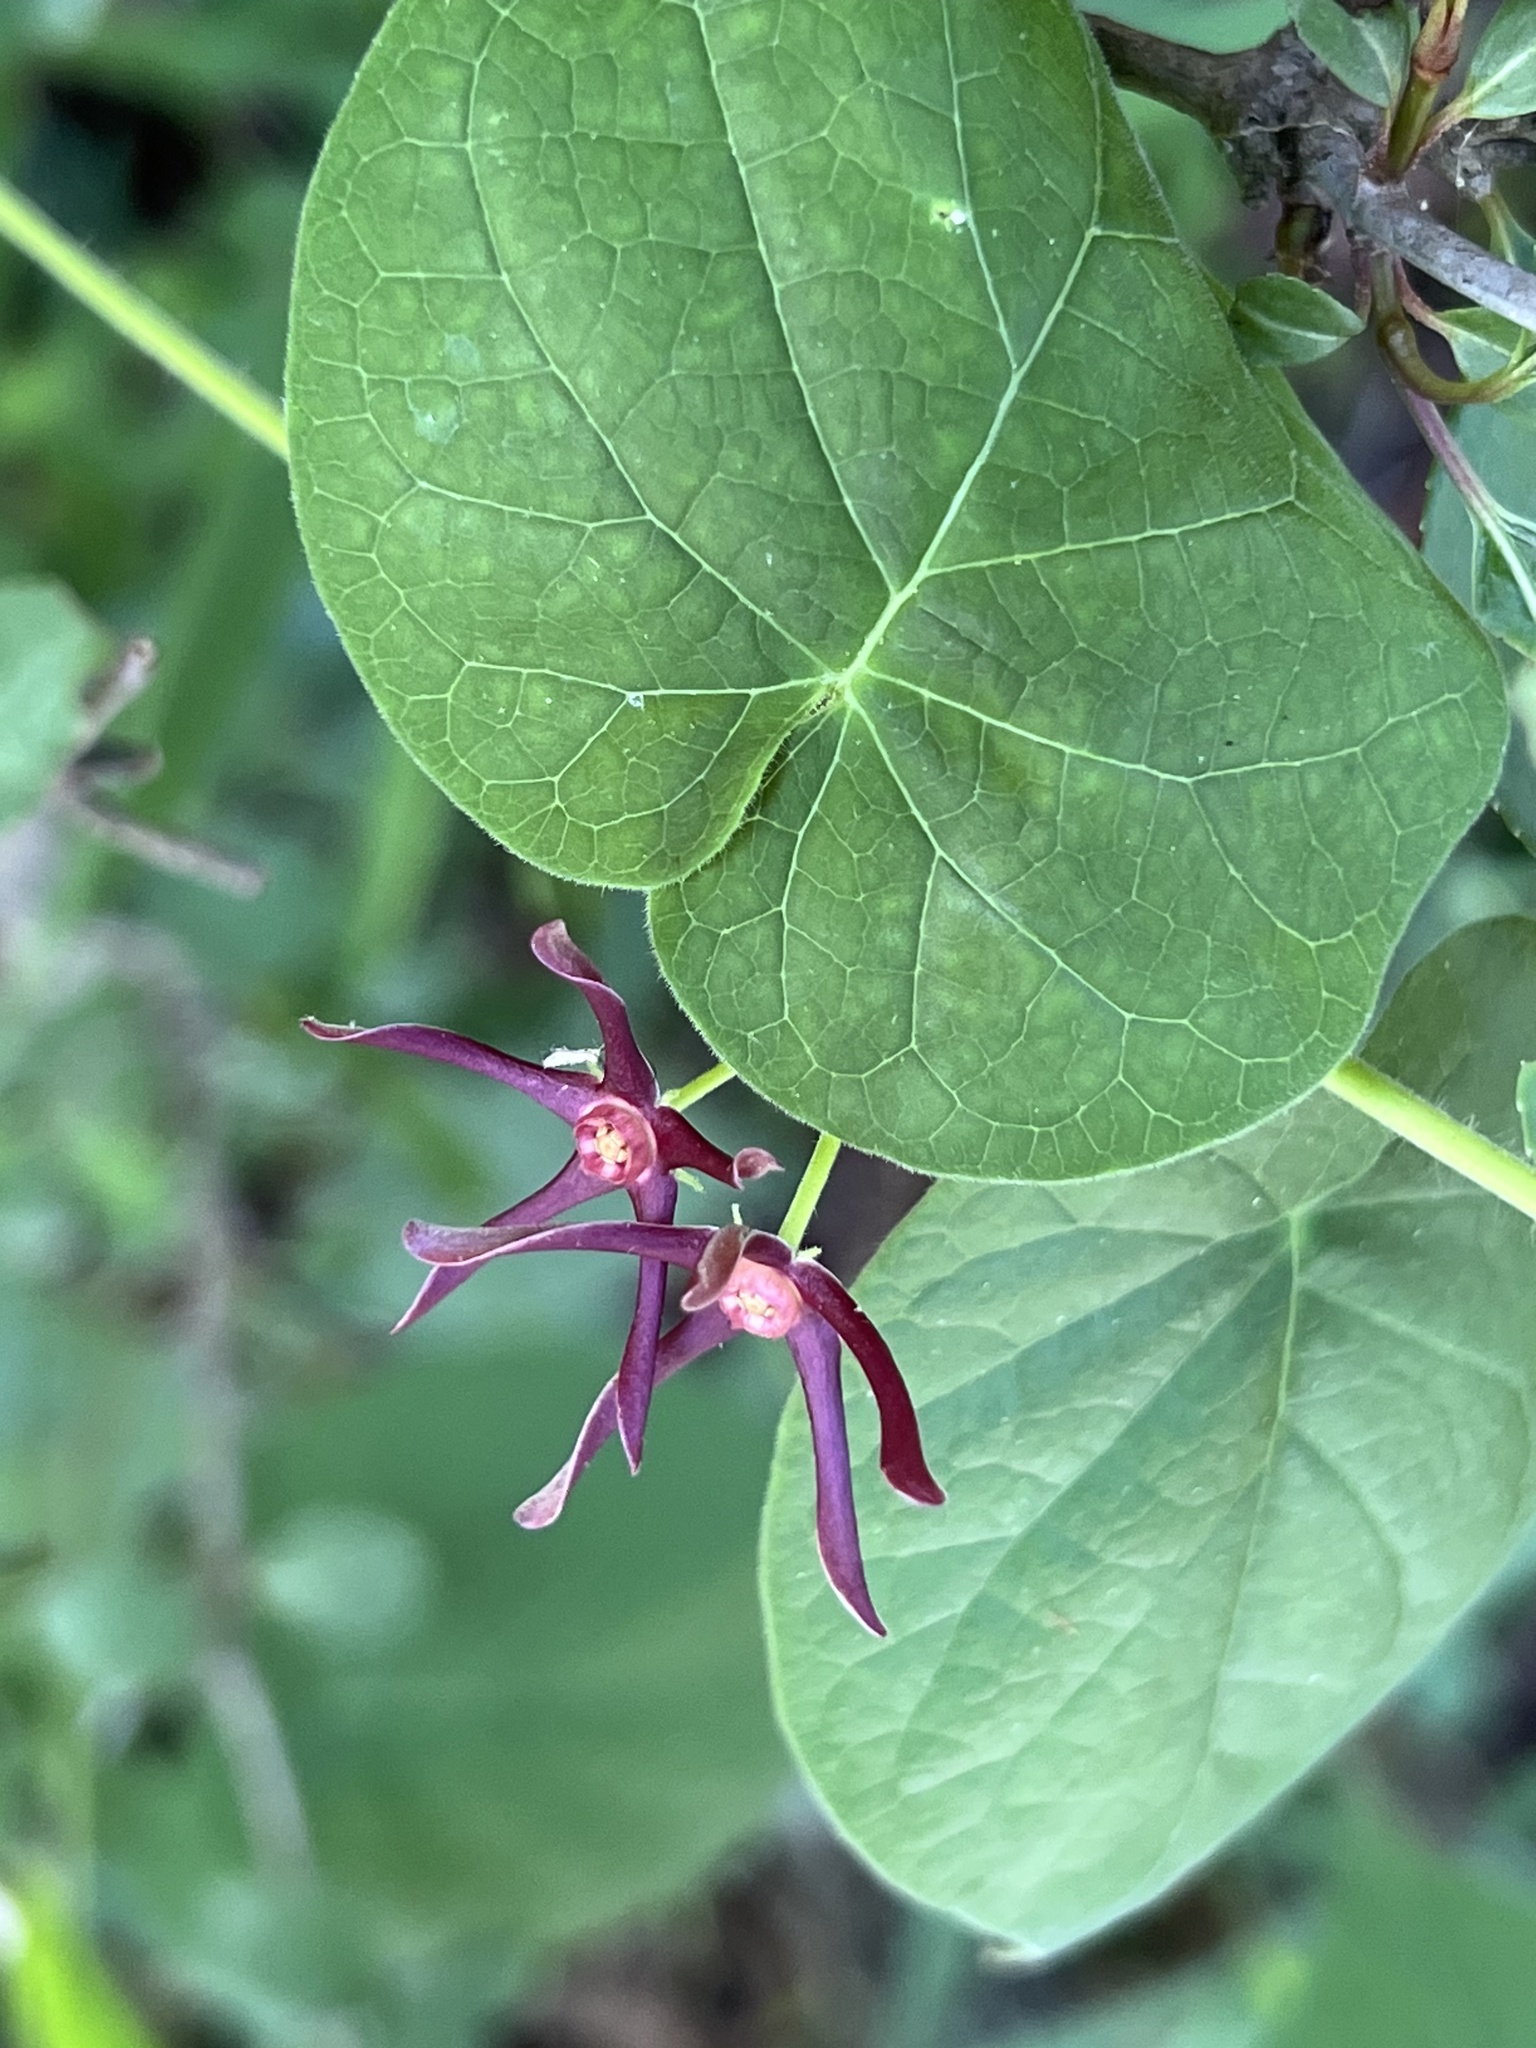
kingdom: Plantae
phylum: Tracheophyta
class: Magnoliopsida
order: Gentianales
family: Apocynaceae
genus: Matelea
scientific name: Matelea obliqua
